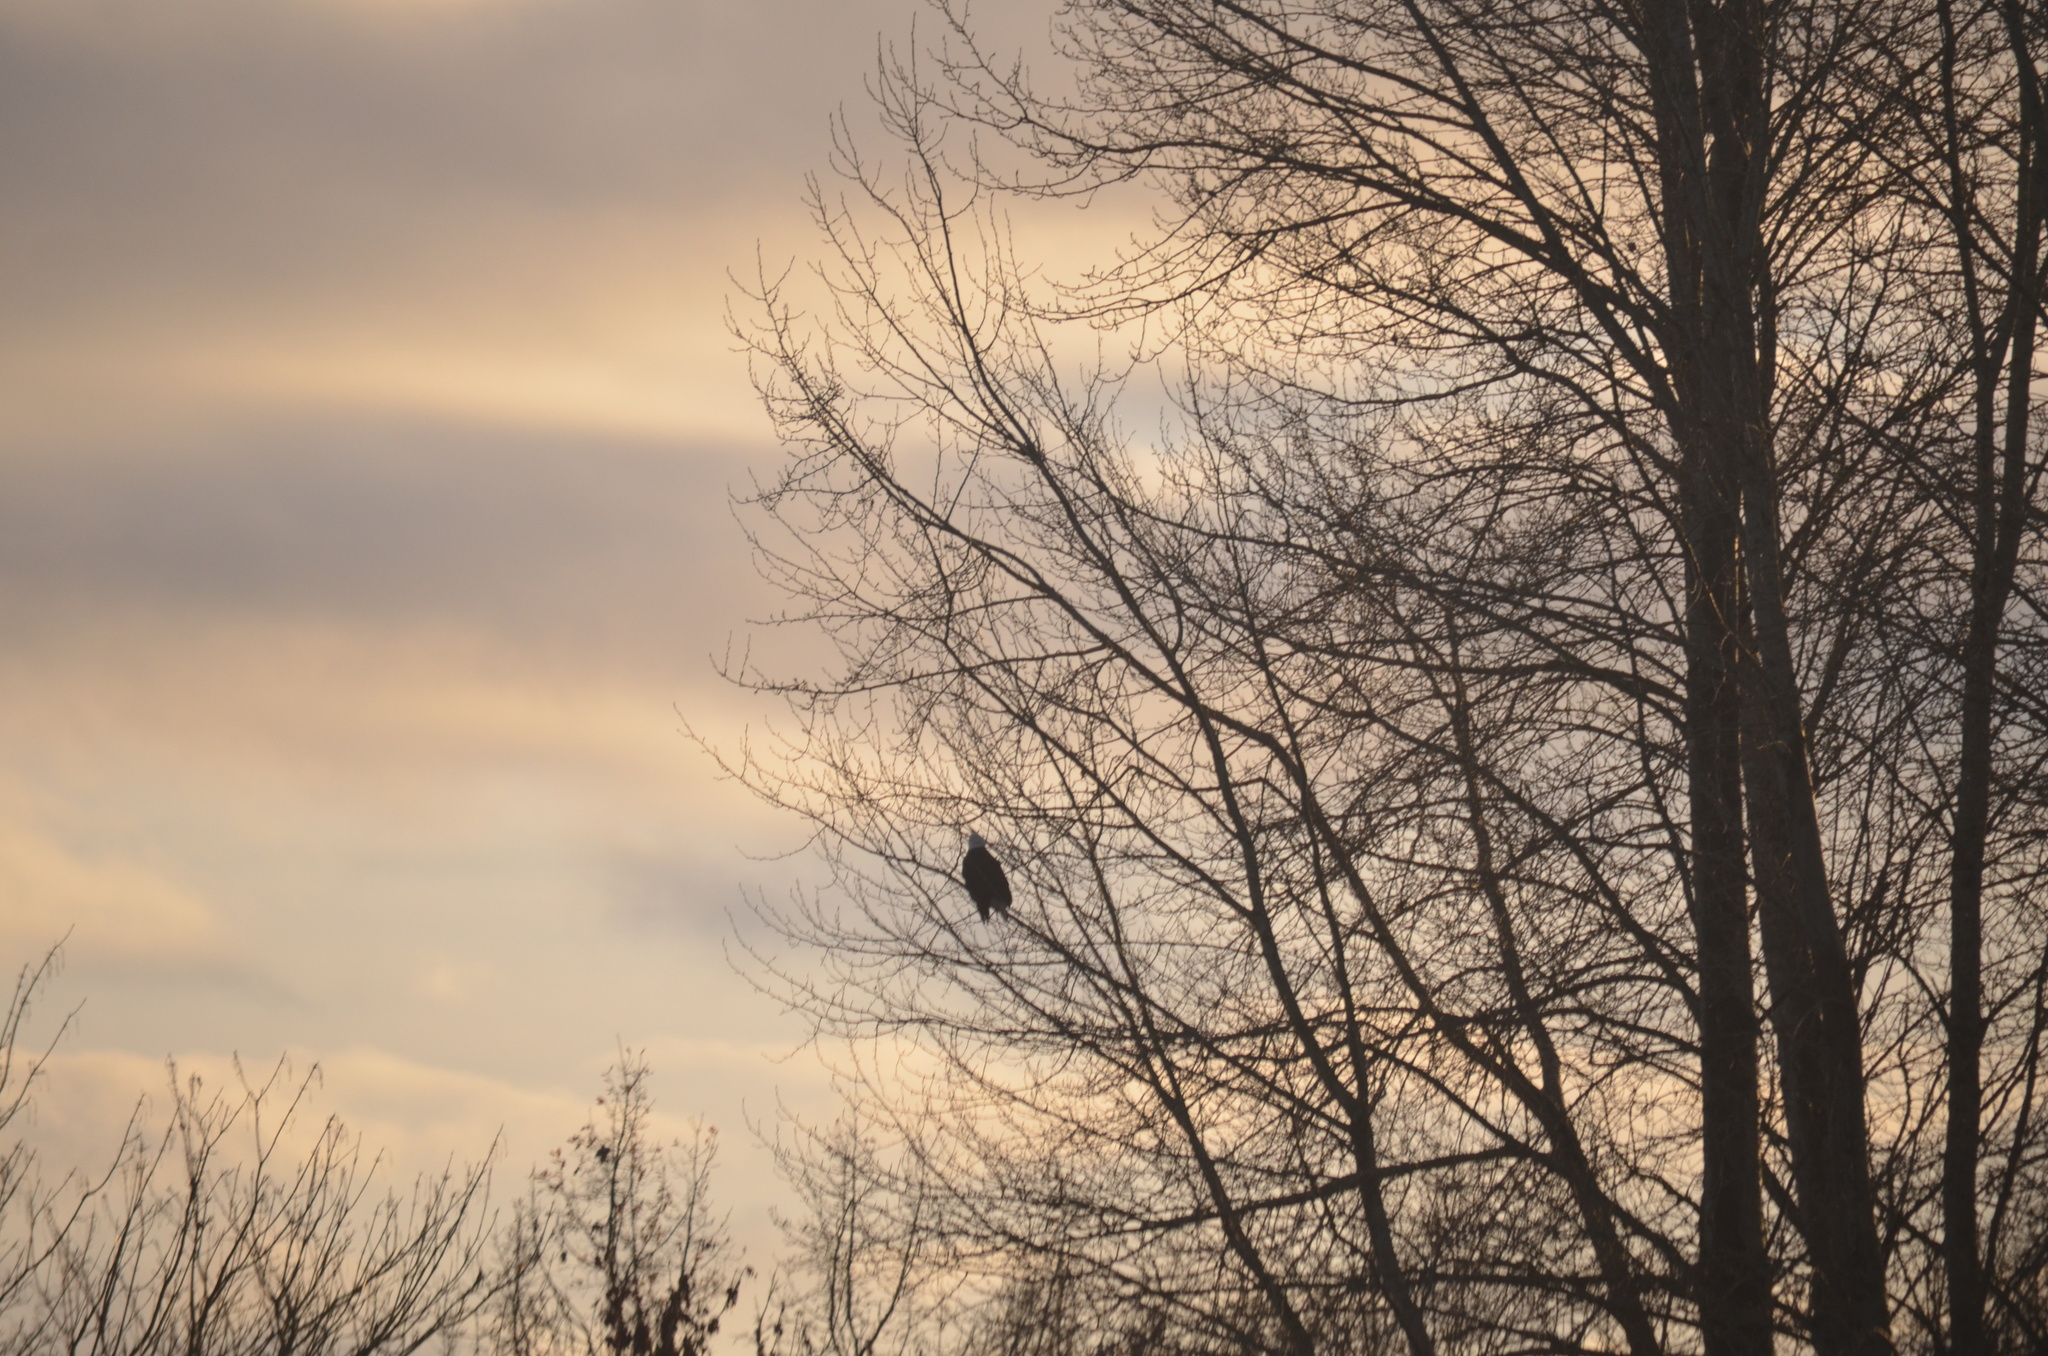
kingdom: Animalia
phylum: Chordata
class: Aves
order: Accipitriformes
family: Accipitridae
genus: Haliaeetus
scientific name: Haliaeetus leucocephalus
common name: Bald eagle
